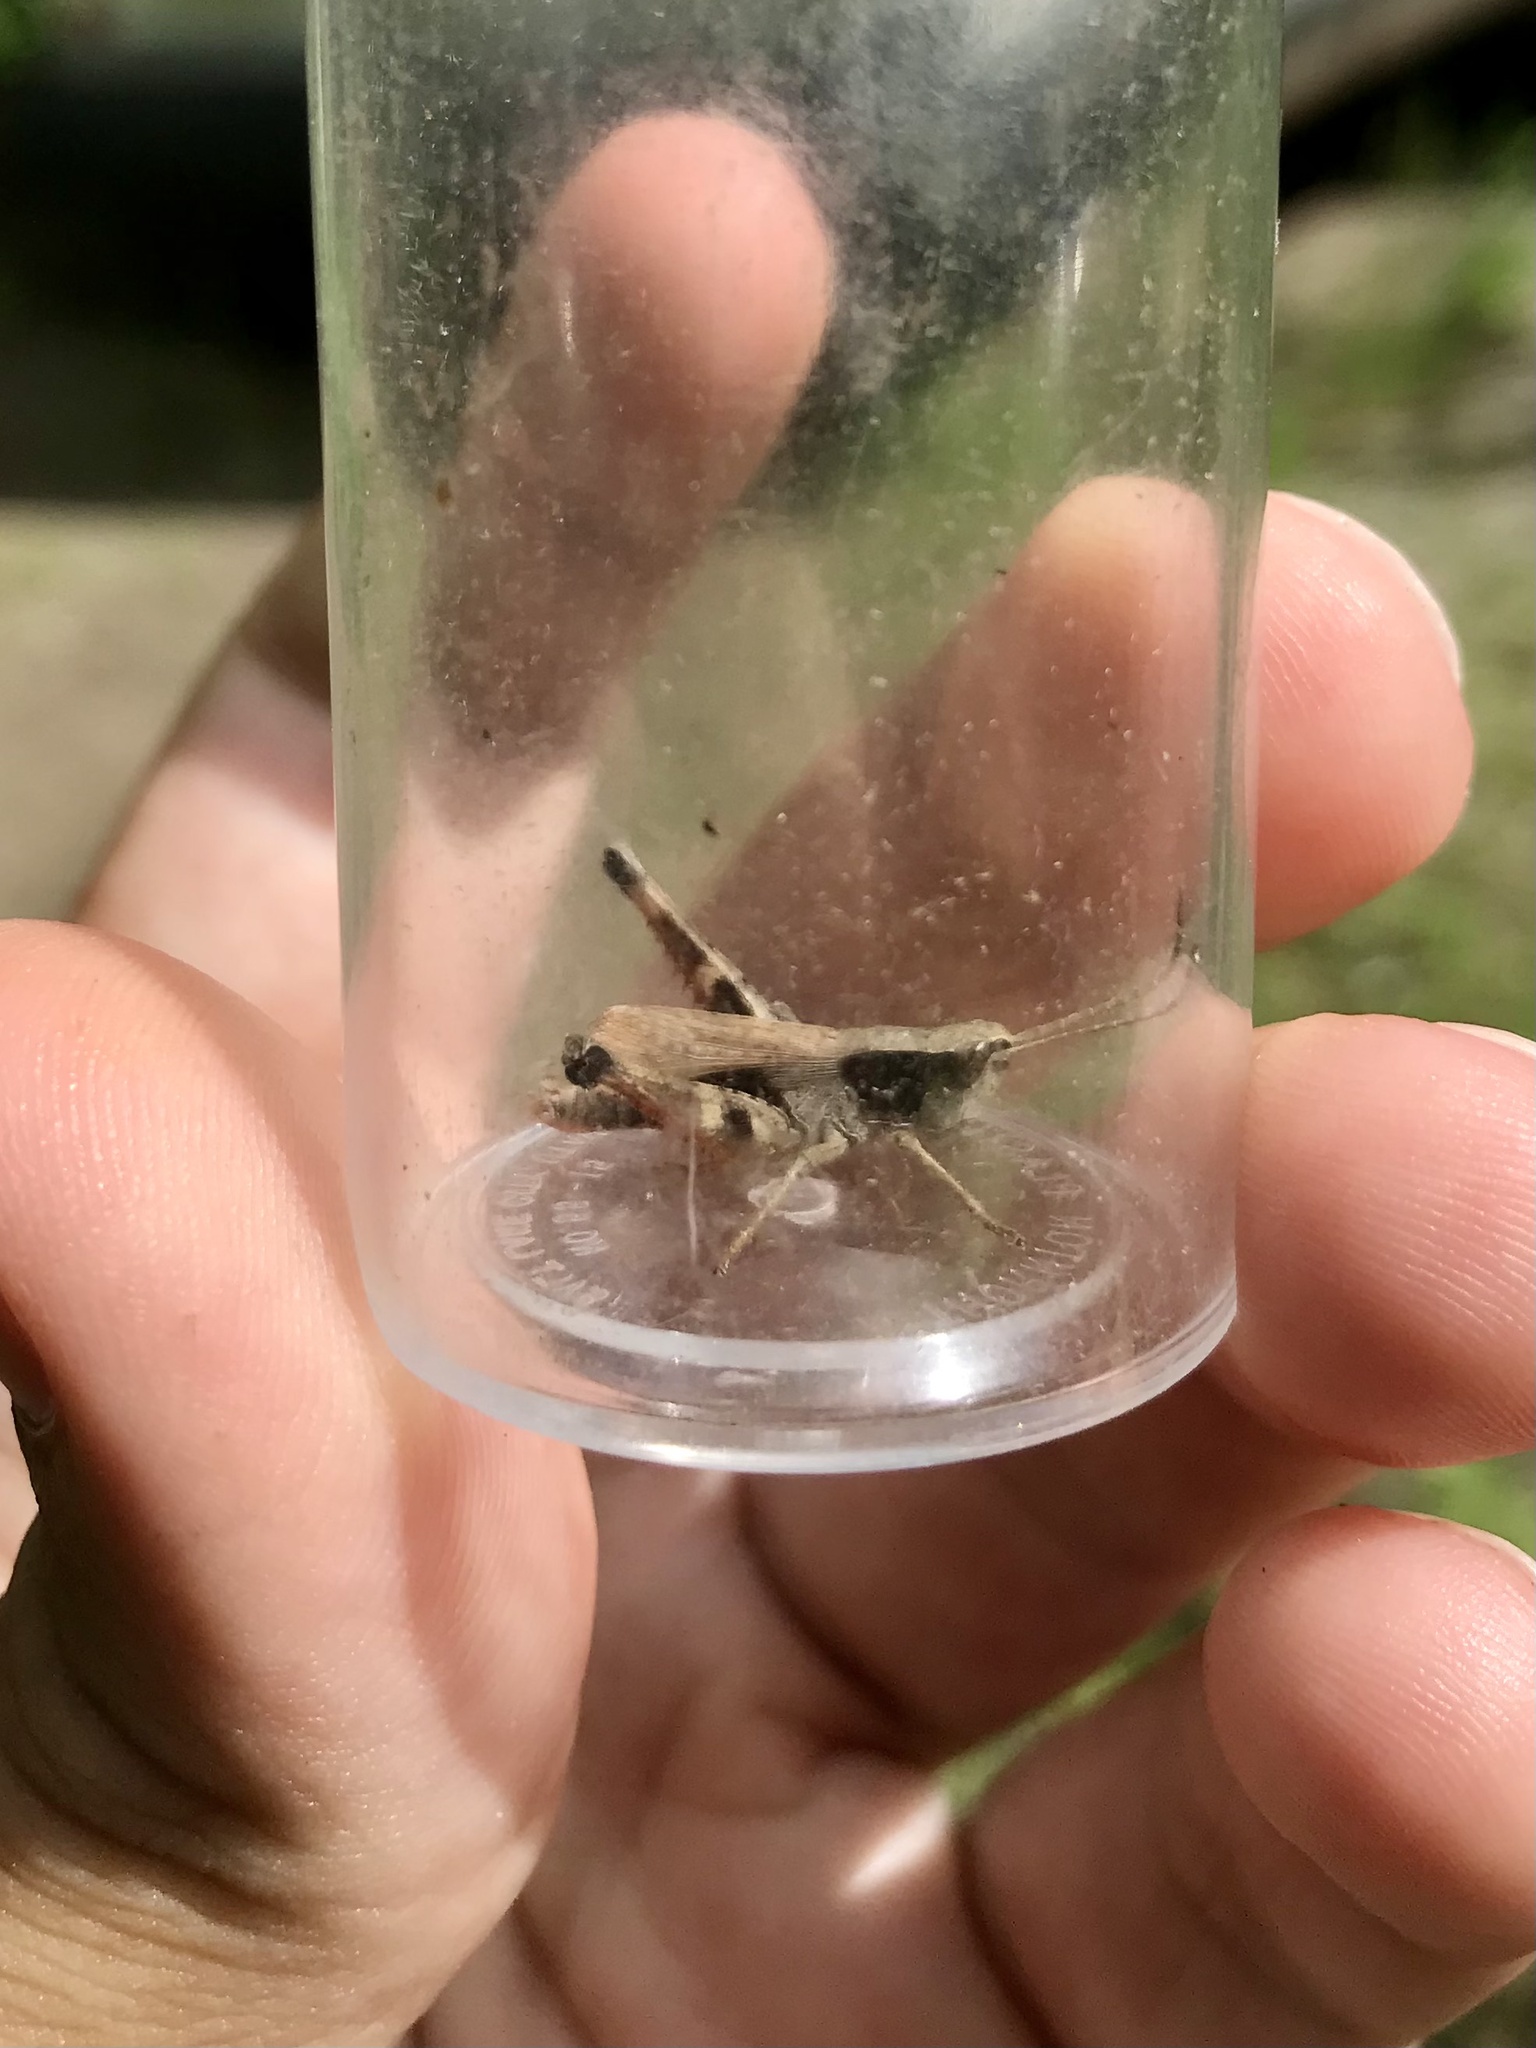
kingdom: Animalia
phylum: Arthropoda
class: Insecta
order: Orthoptera
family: Acrididae
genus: Chloealtis
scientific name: Chloealtis conspersa
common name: Sprinkled broad-winged grasshopper
